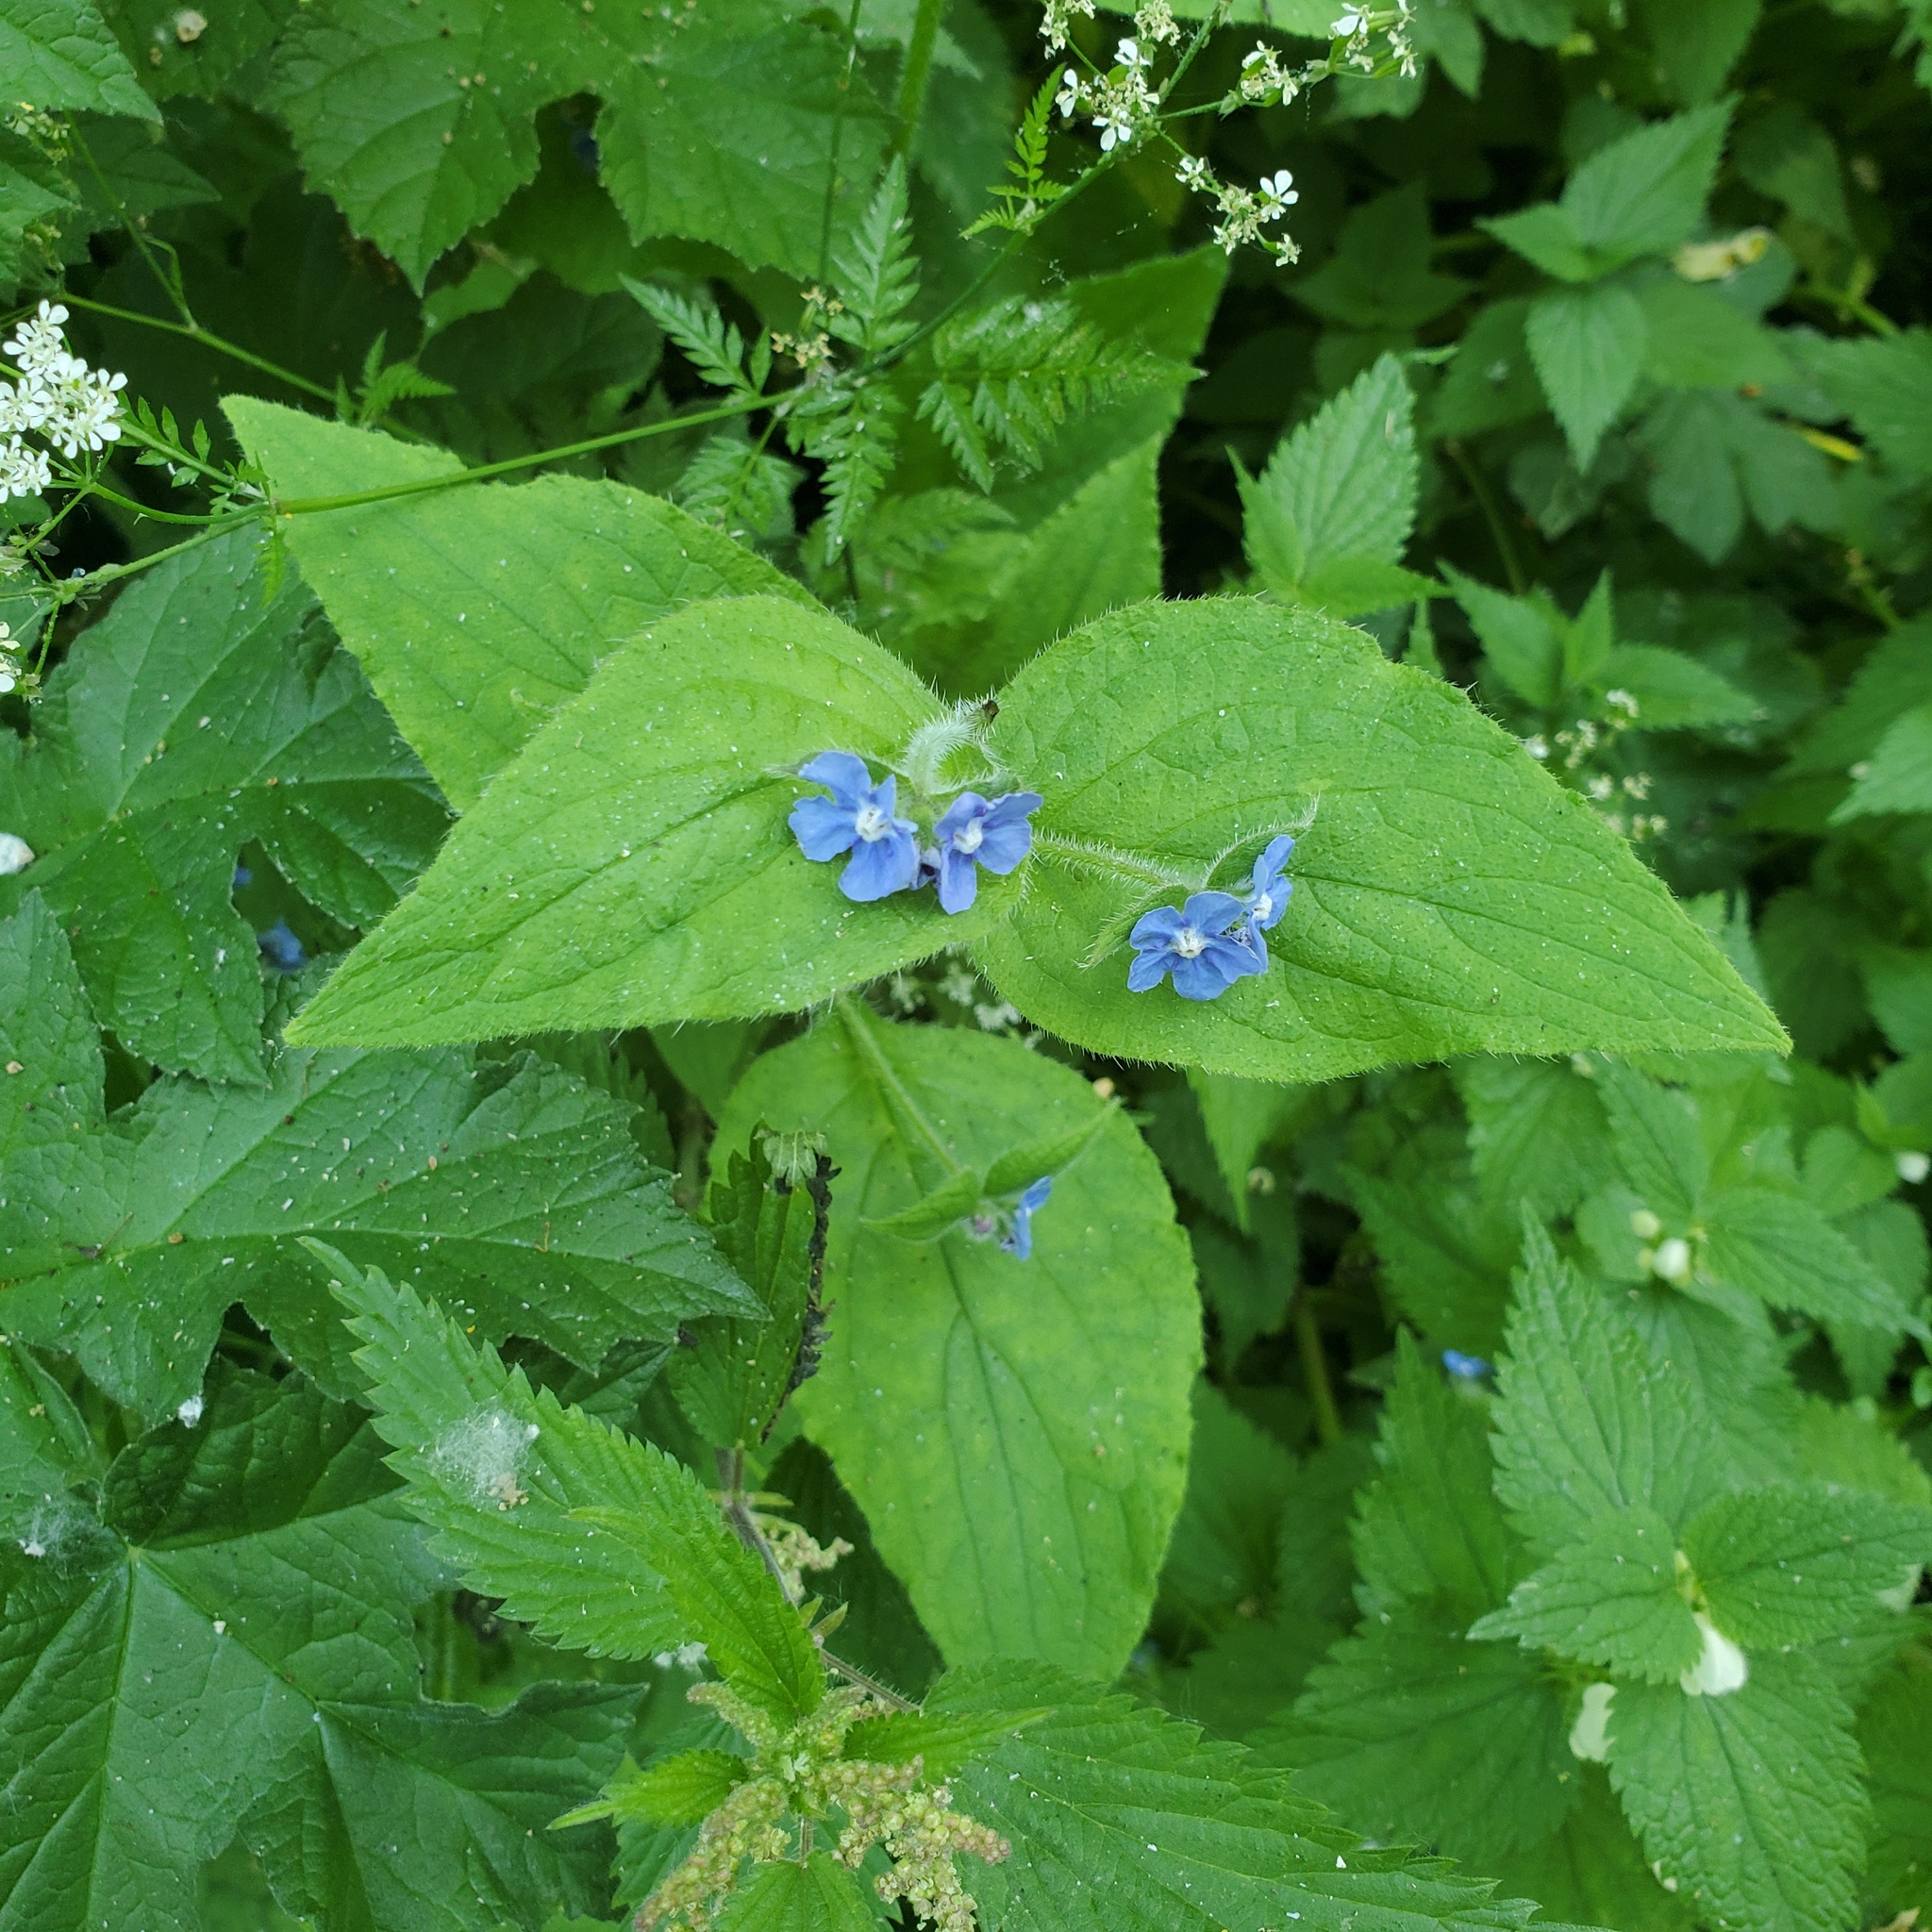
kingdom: Plantae
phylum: Tracheophyta
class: Magnoliopsida
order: Boraginales
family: Boraginaceae
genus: Pentaglottis
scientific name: Pentaglottis sempervirens
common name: Green alkanet
